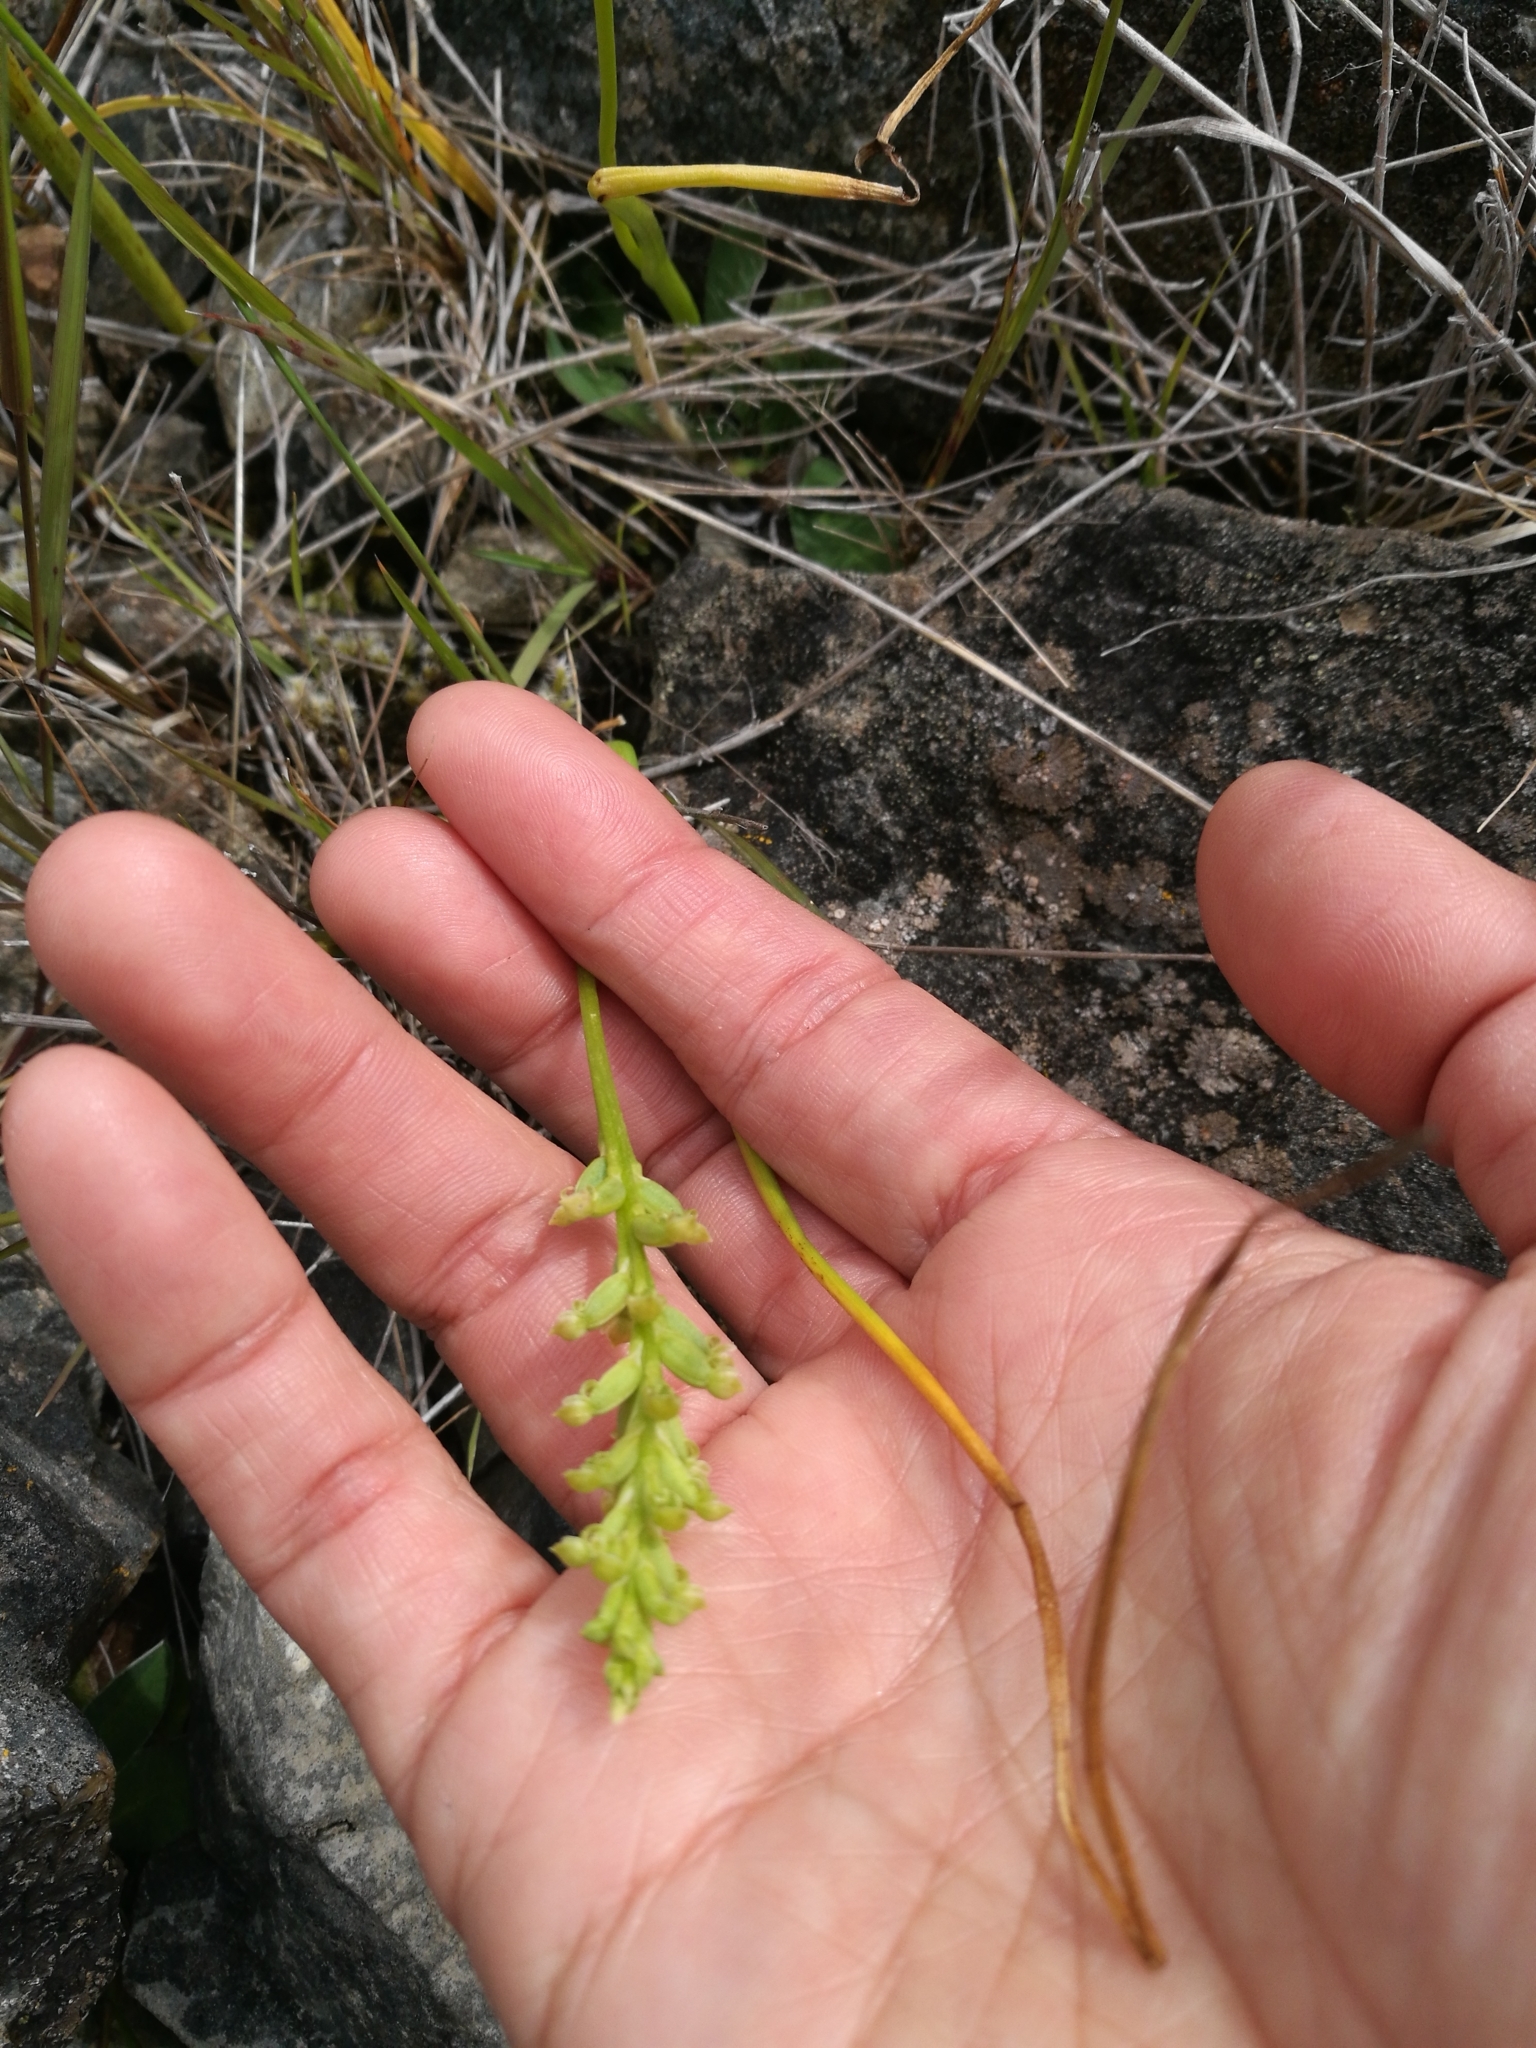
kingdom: Plantae
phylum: Tracheophyta
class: Liliopsida
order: Asparagales
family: Orchidaceae
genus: Microtis
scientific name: Microtis unifolia
